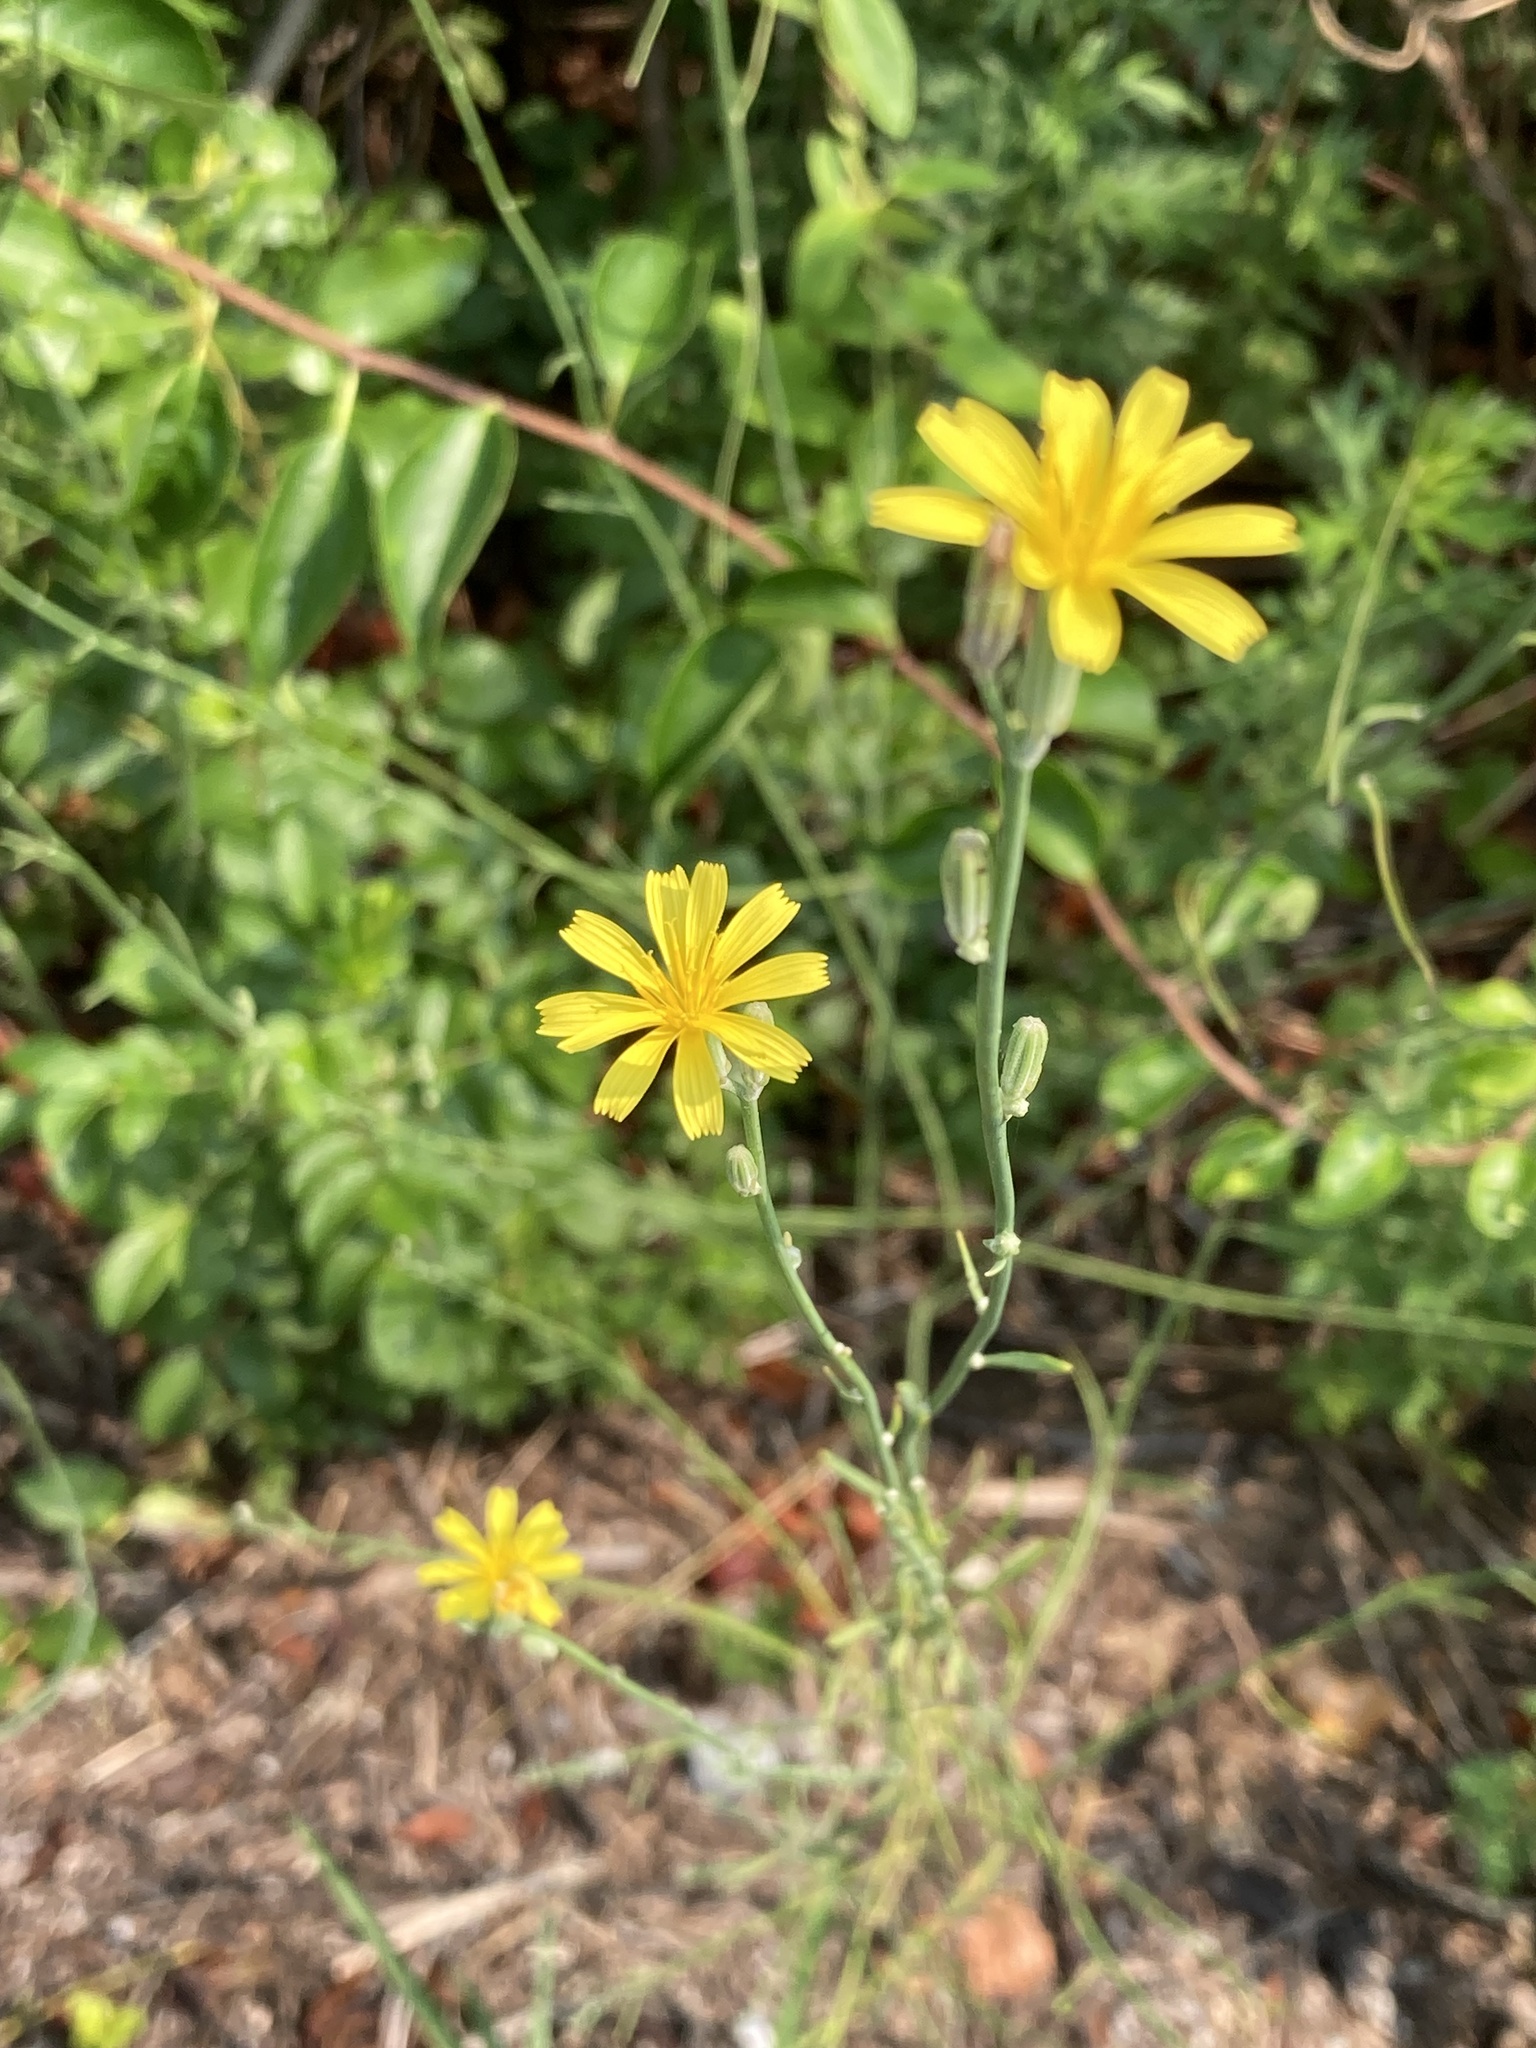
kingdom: Plantae
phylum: Tracheophyta
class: Magnoliopsida
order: Asterales
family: Asteraceae
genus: Chondrilla
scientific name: Chondrilla juncea
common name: Skeleton weed
